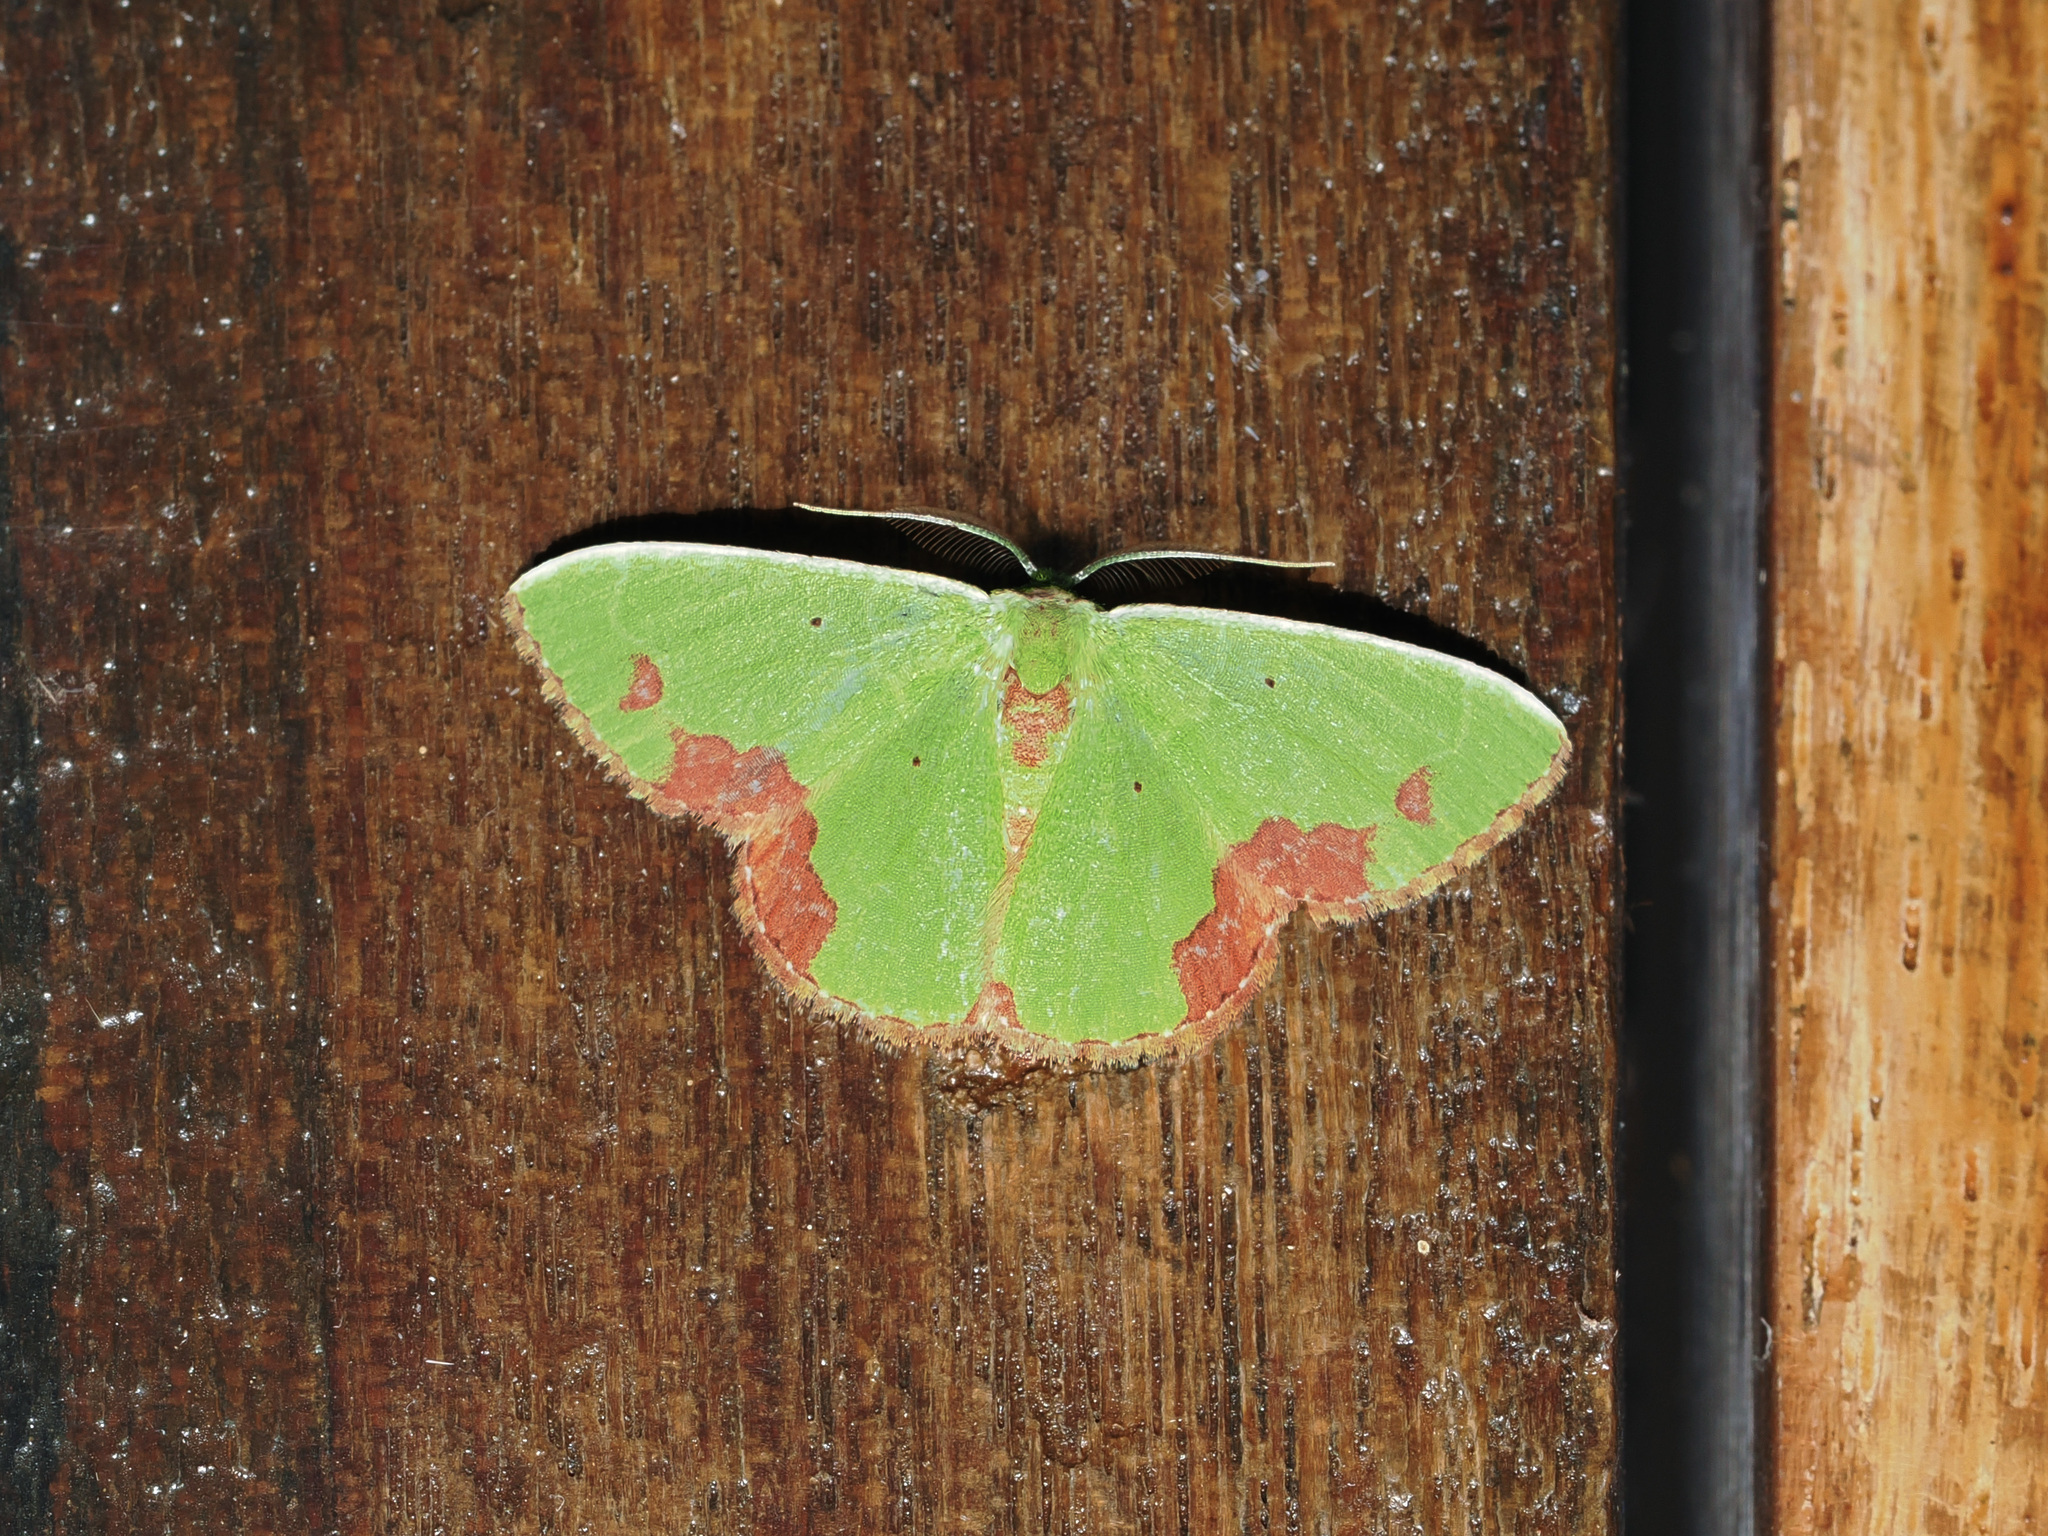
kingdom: Animalia
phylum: Arthropoda
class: Insecta
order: Lepidoptera
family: Geometridae
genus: Comibaena
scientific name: Comibaena attenuata
